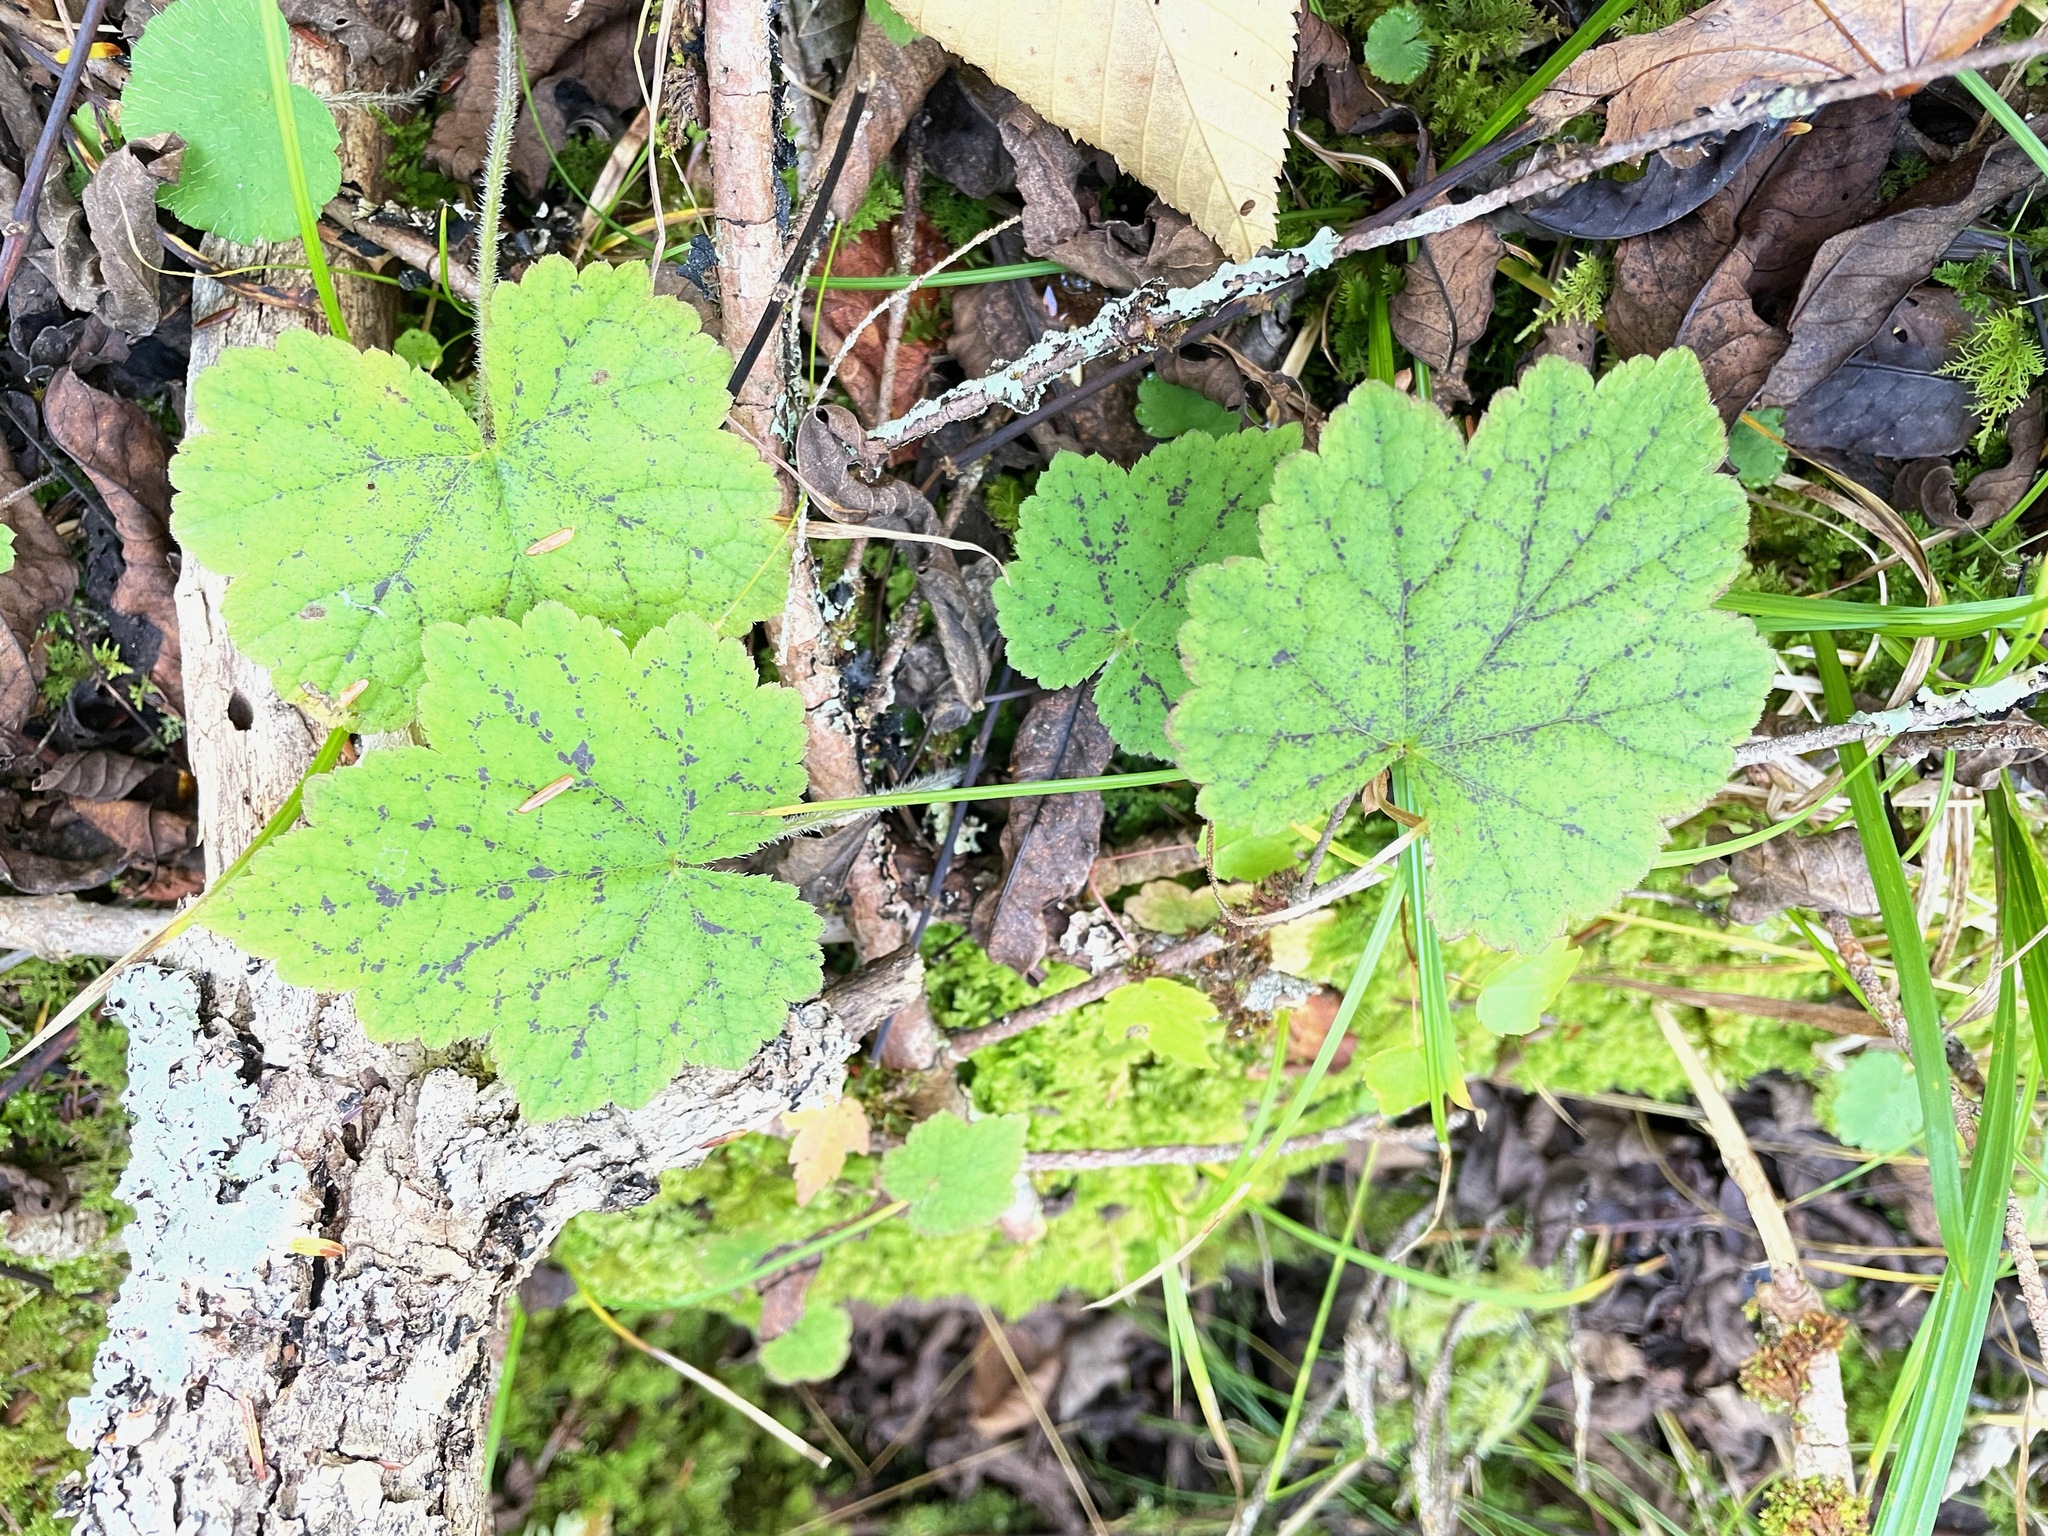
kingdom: Plantae
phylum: Tracheophyta
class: Magnoliopsida
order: Saxifragales
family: Saxifragaceae
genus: Tiarella
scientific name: Tiarella stolonifera
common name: Stoloniferous foamflower
